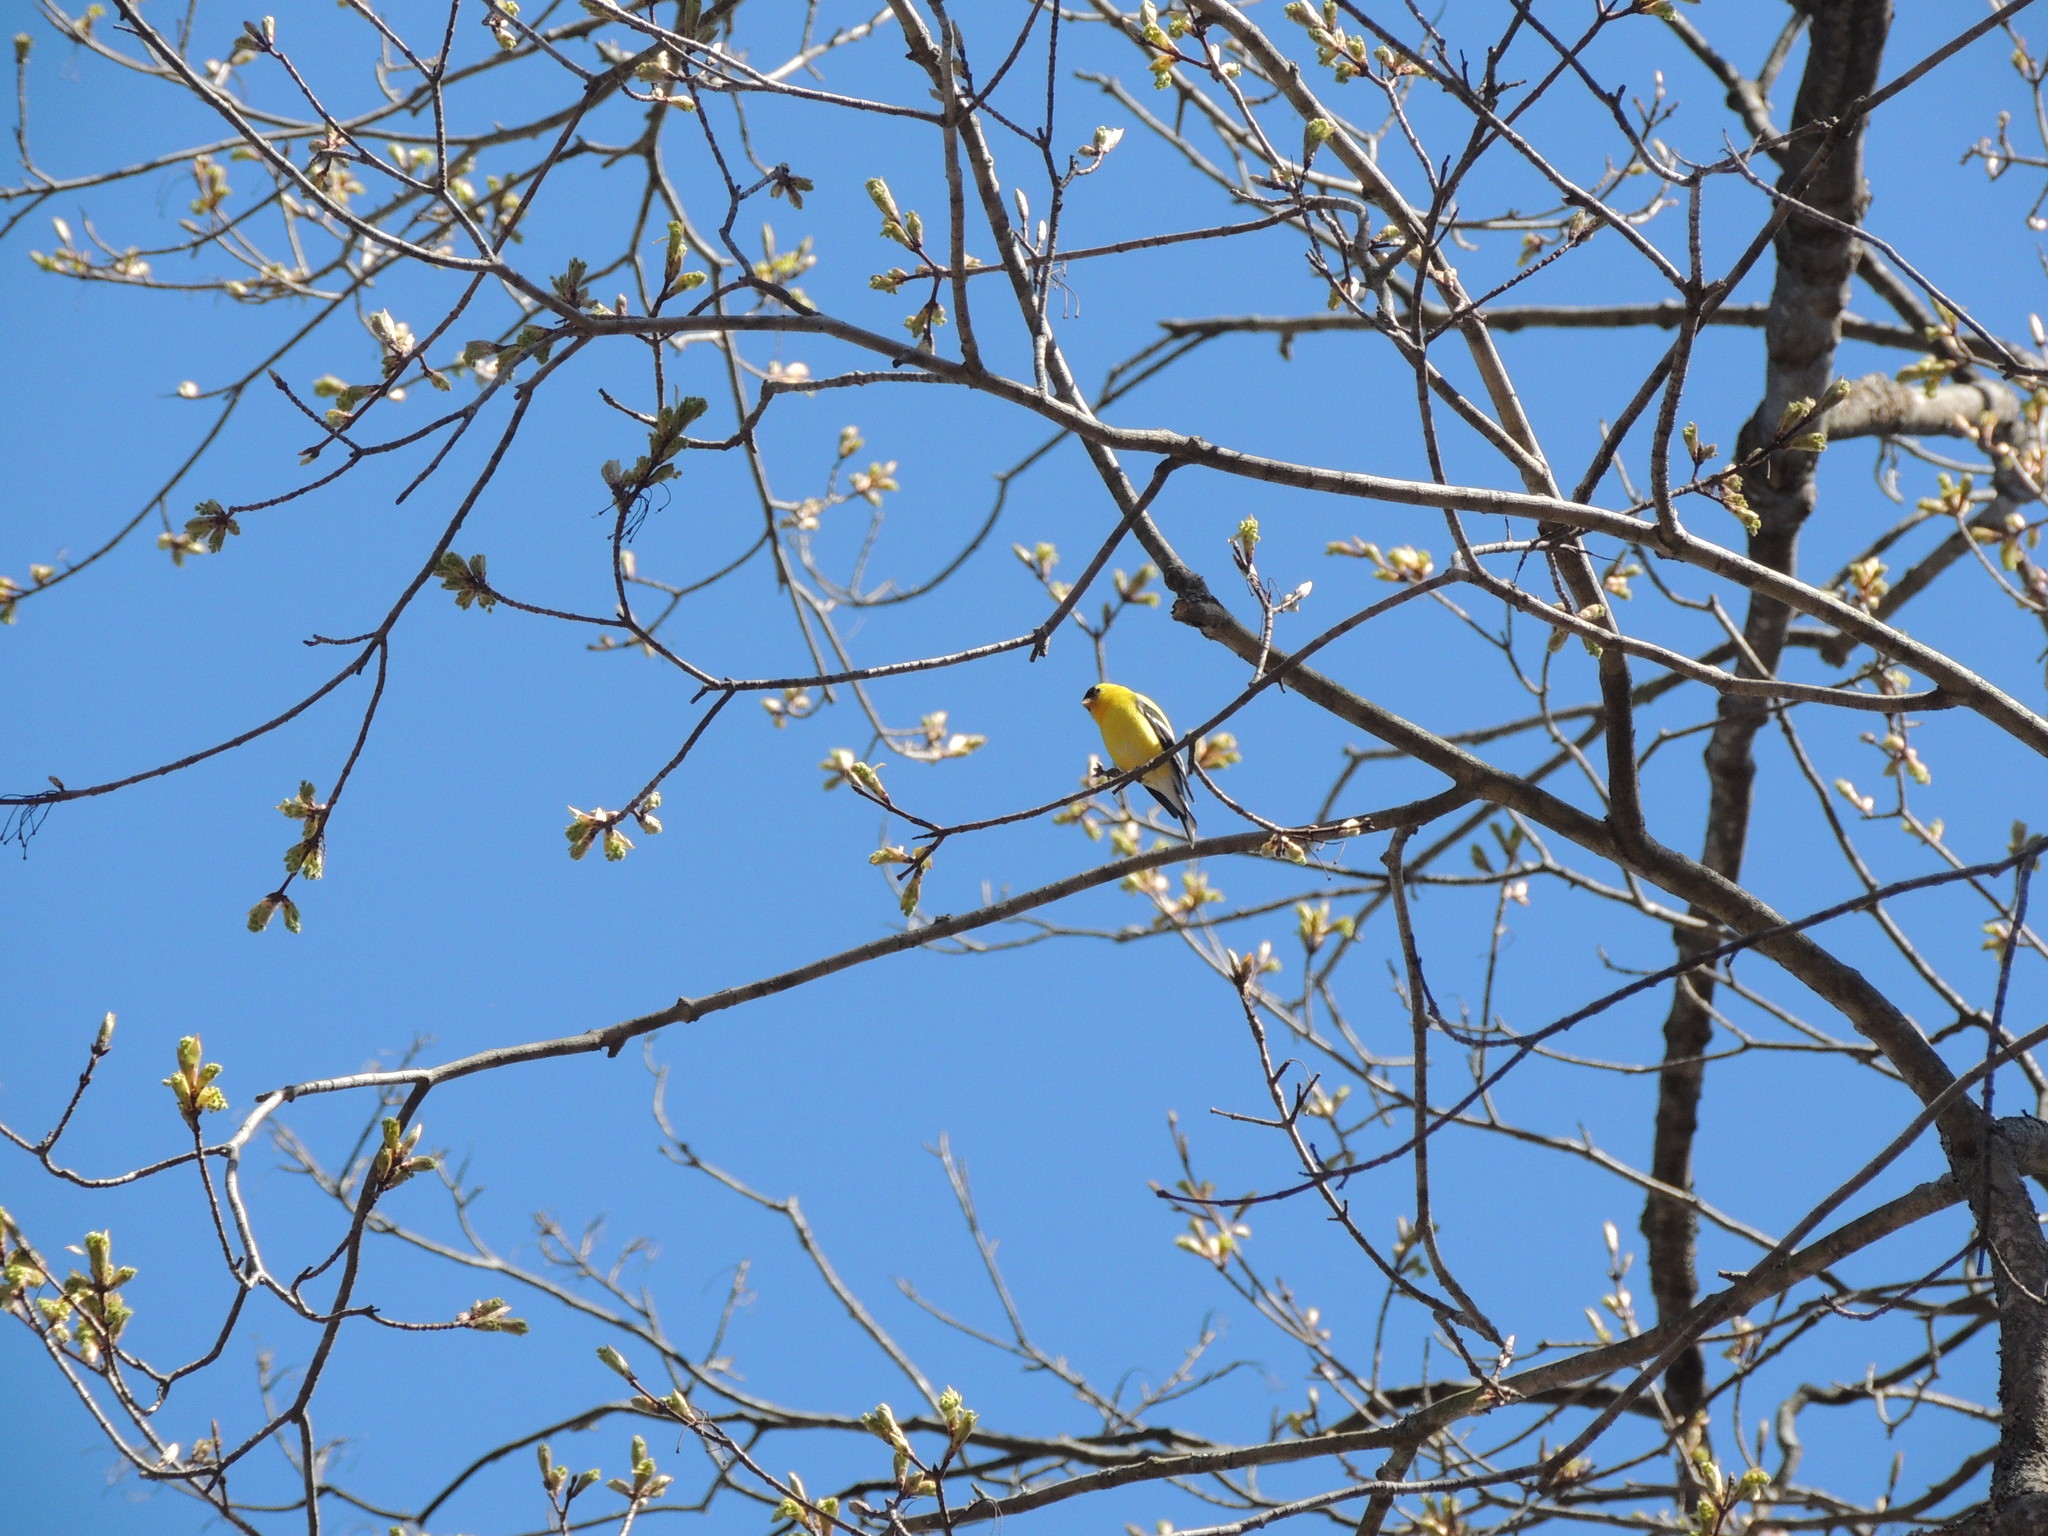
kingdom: Animalia
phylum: Chordata
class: Aves
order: Passeriformes
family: Fringillidae
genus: Spinus
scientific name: Spinus tristis
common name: American goldfinch
